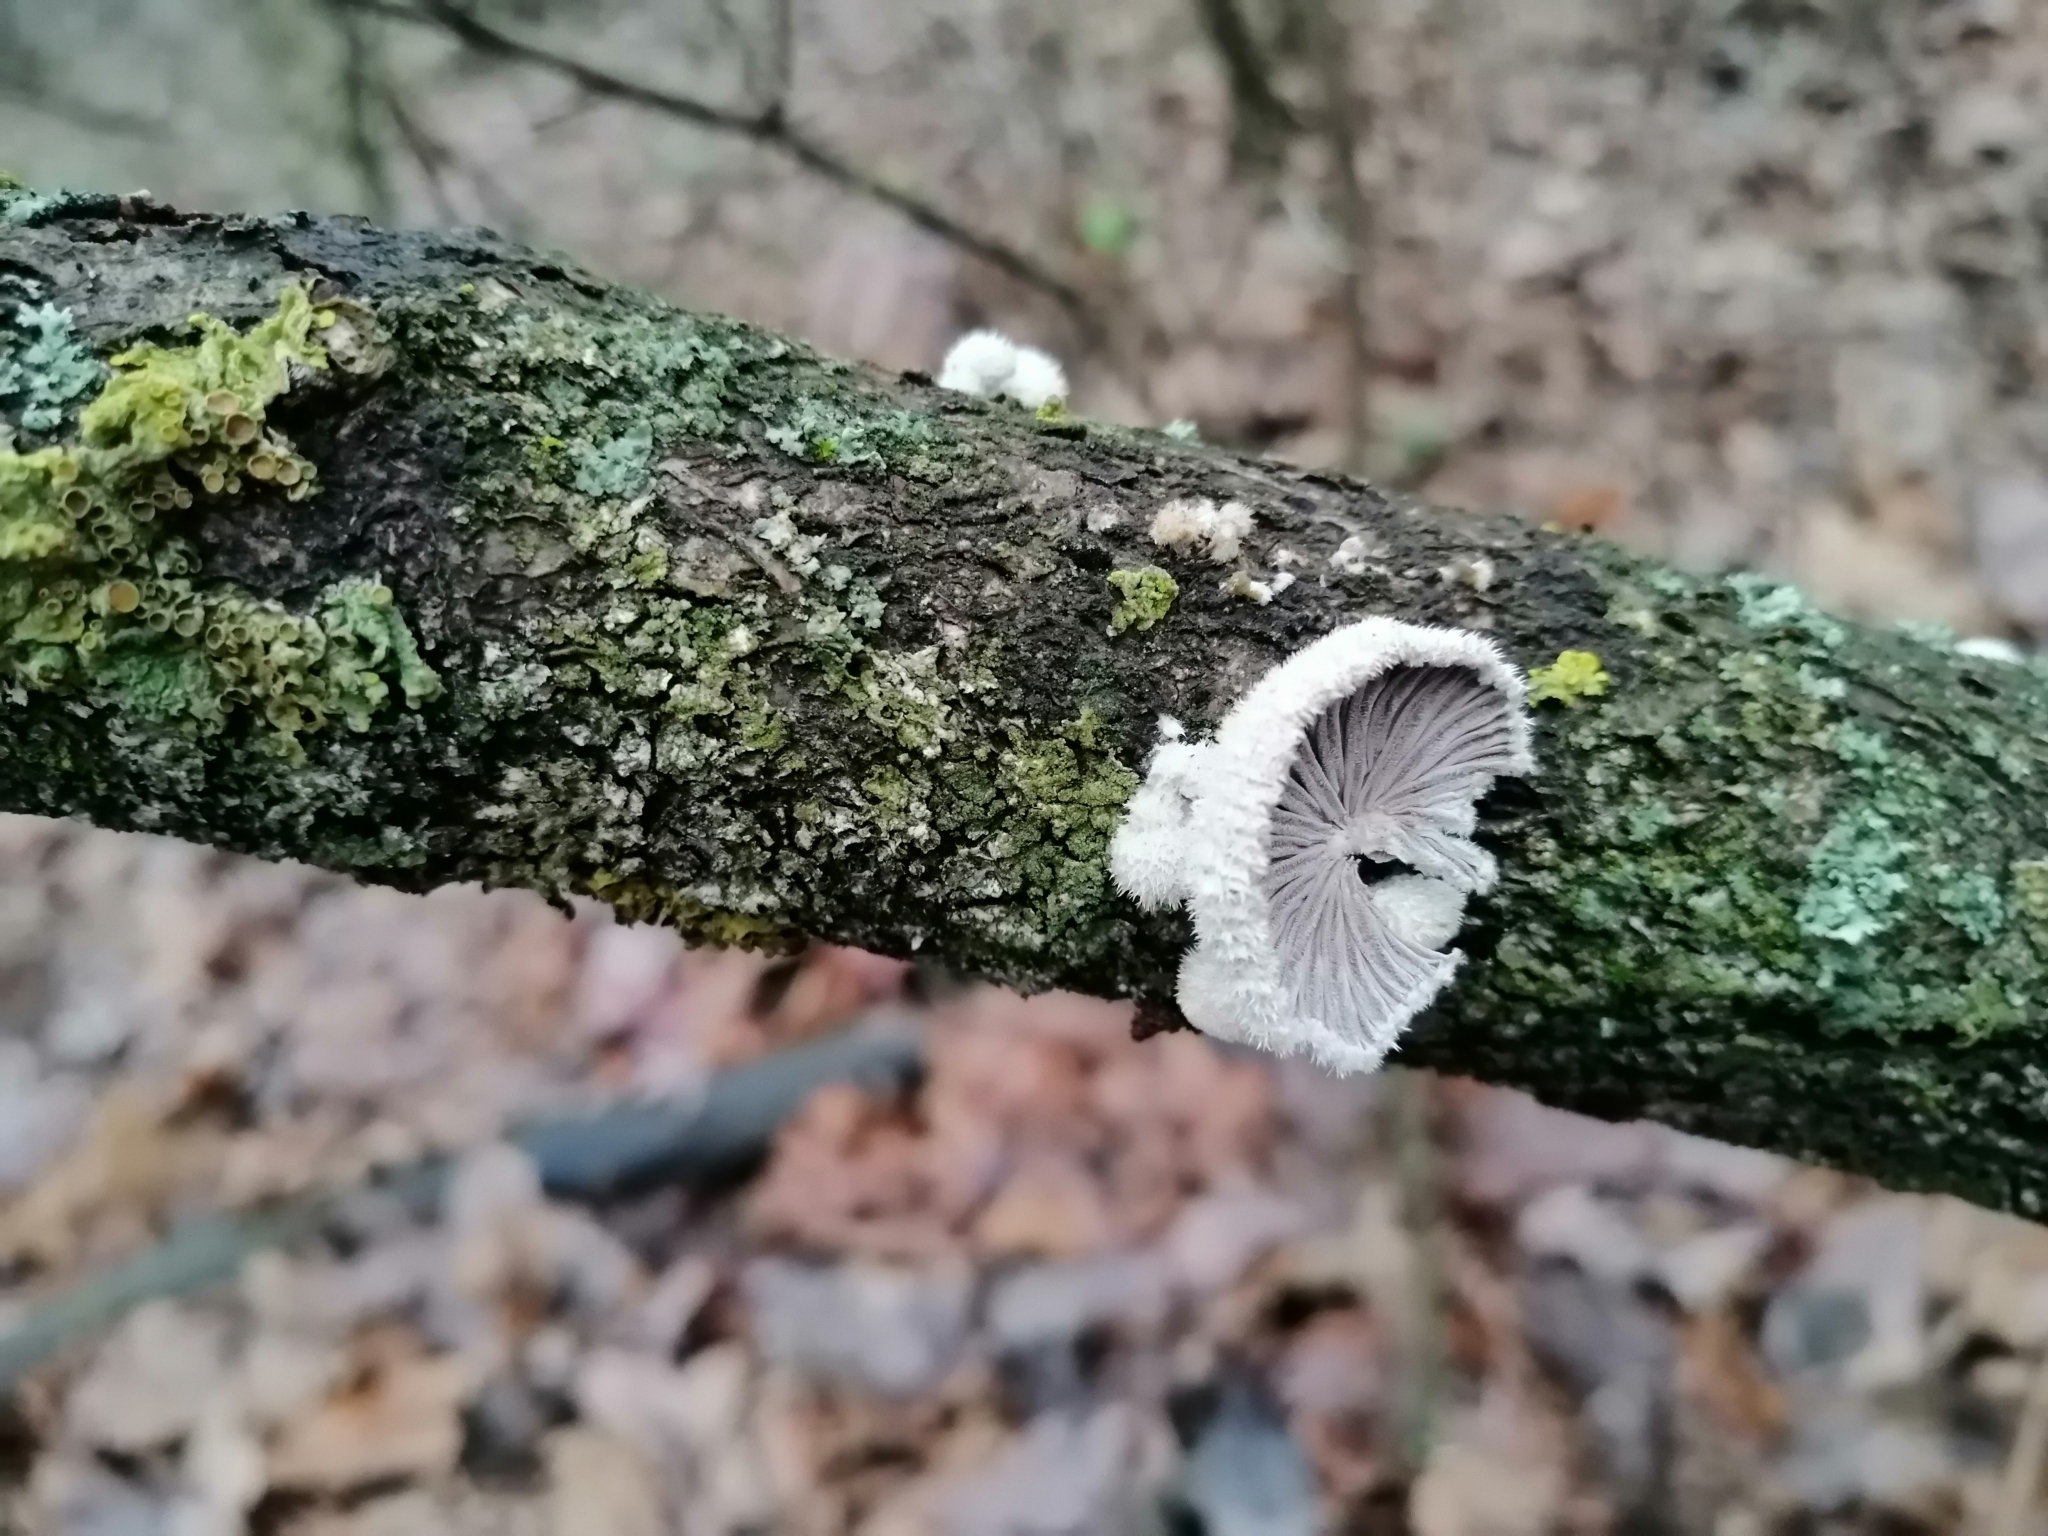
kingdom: Fungi
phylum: Basidiomycota
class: Agaricomycetes
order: Agaricales
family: Schizophyllaceae
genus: Schizophyllum
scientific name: Schizophyllum commune
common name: Common porecrust
